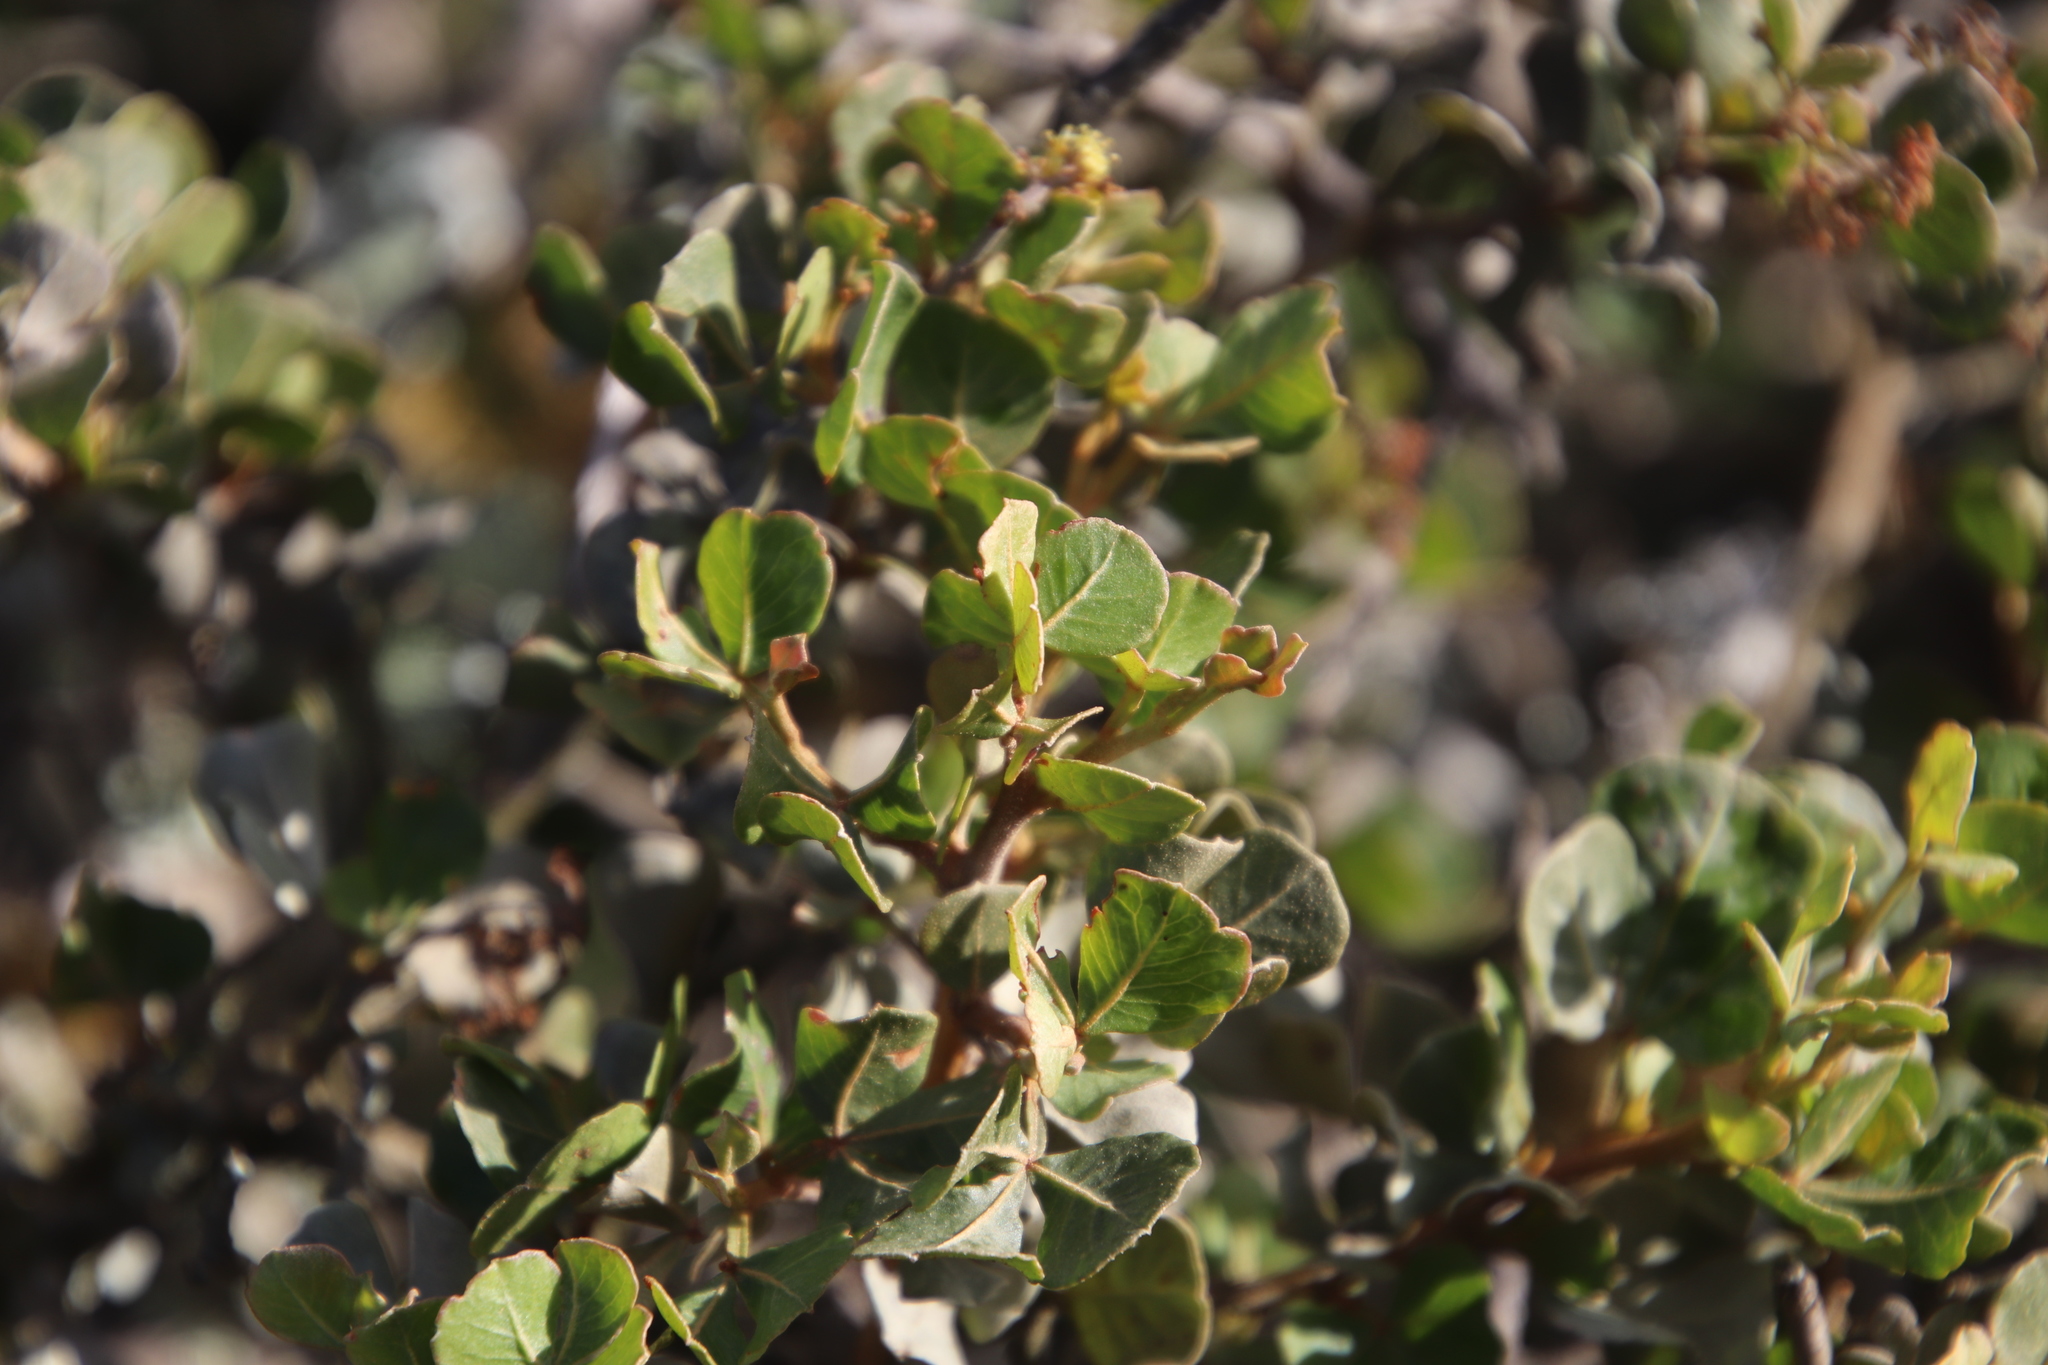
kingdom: Plantae
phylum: Tracheophyta
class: Magnoliopsida
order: Sapindales
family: Anacardiaceae
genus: Searsia
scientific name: Searsia glauca
